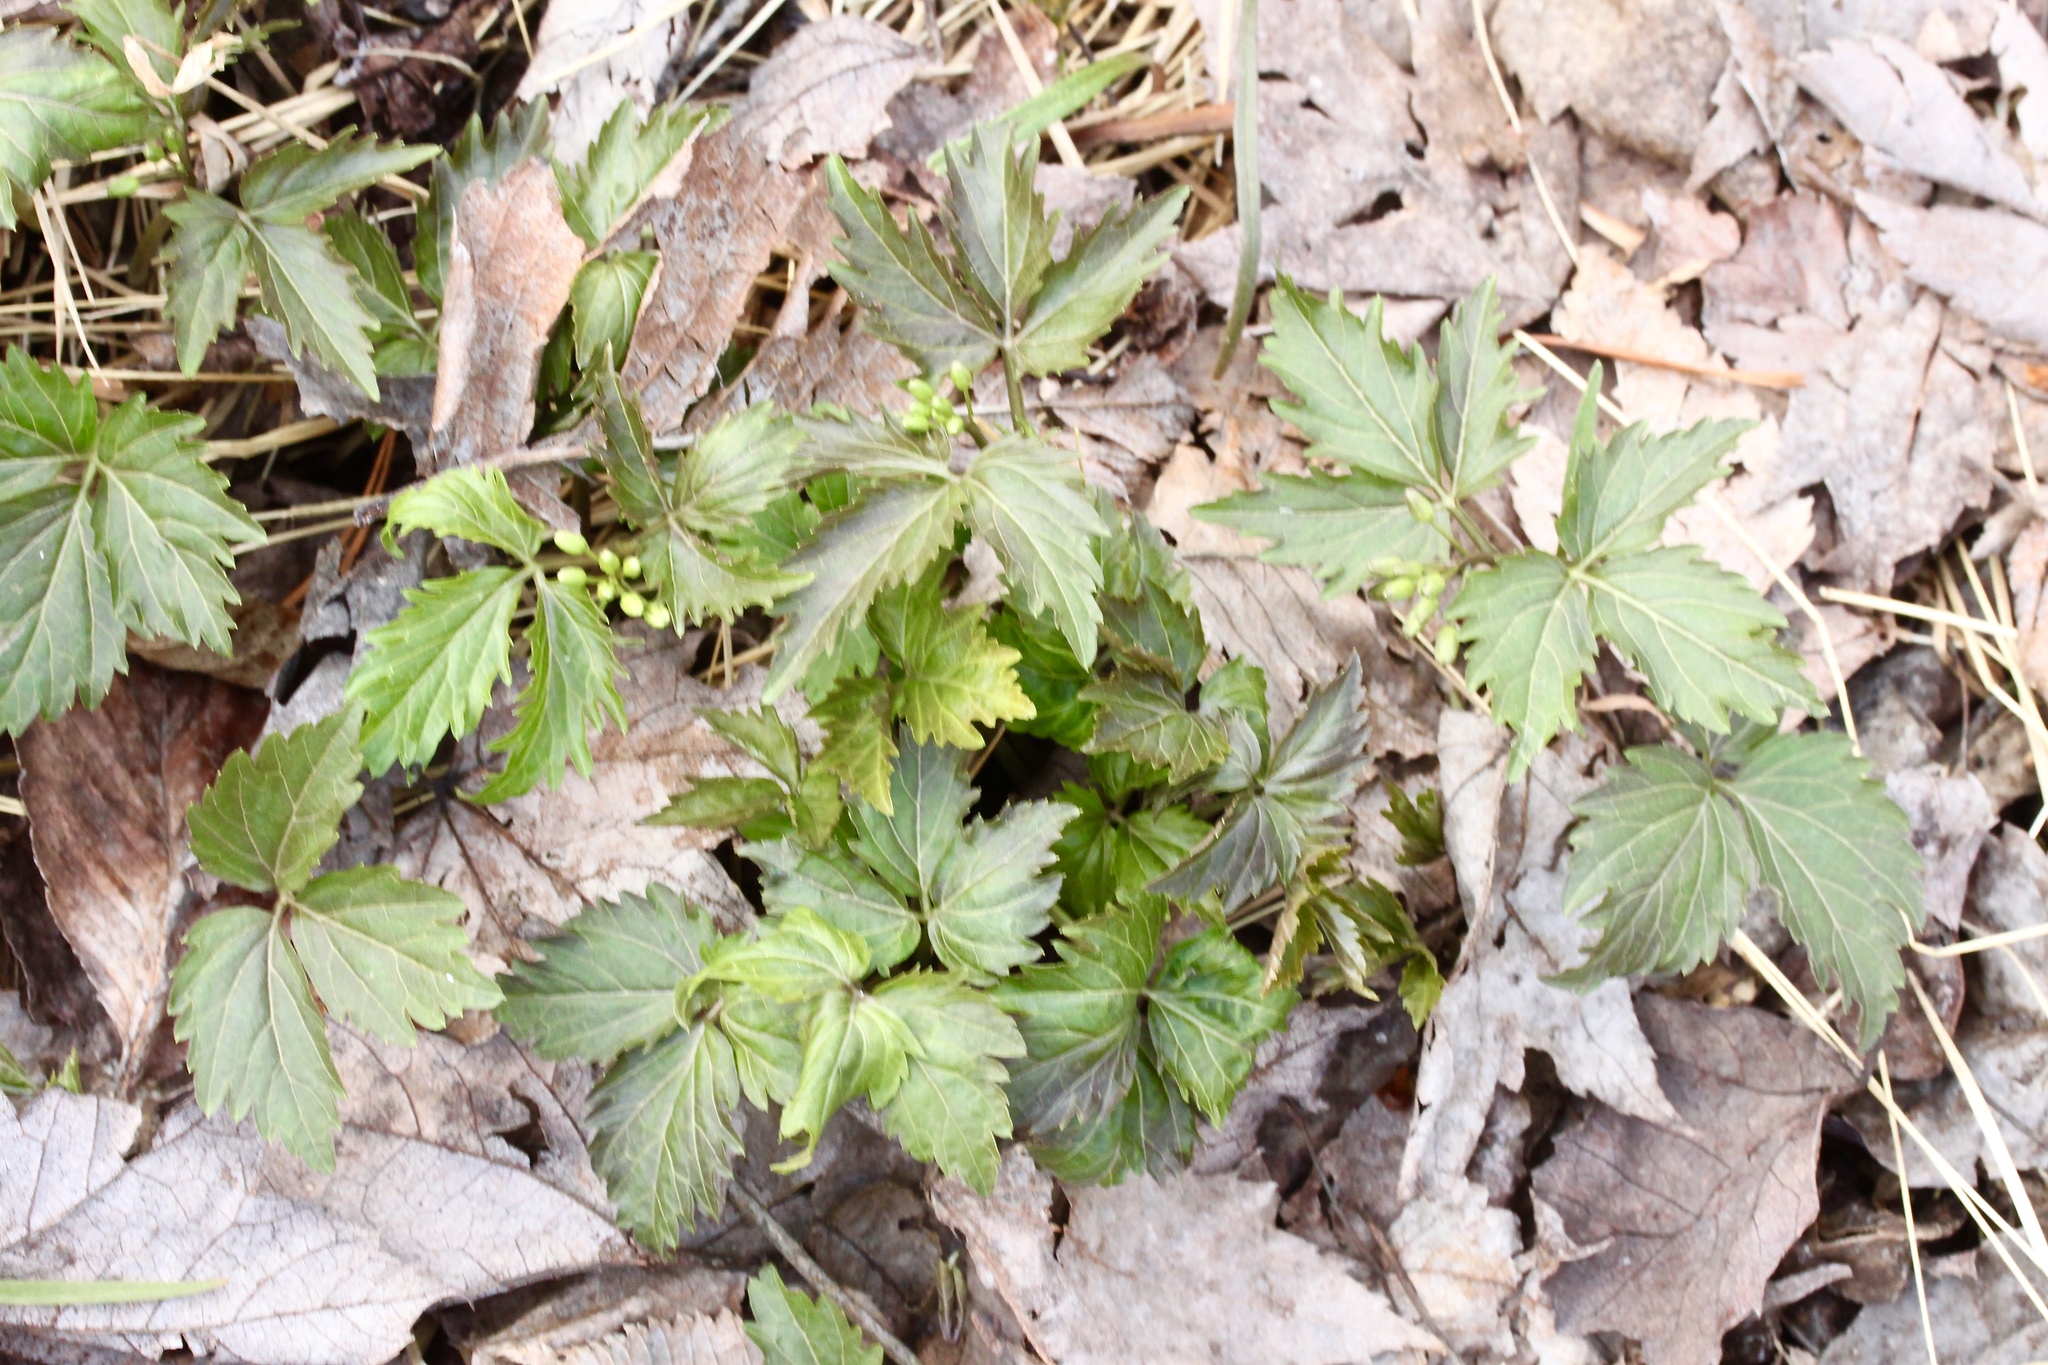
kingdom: Plantae
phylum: Tracheophyta
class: Magnoliopsida
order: Brassicales
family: Brassicaceae
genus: Cardamine
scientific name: Cardamine diphylla
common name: Broad-leaved toothwort
